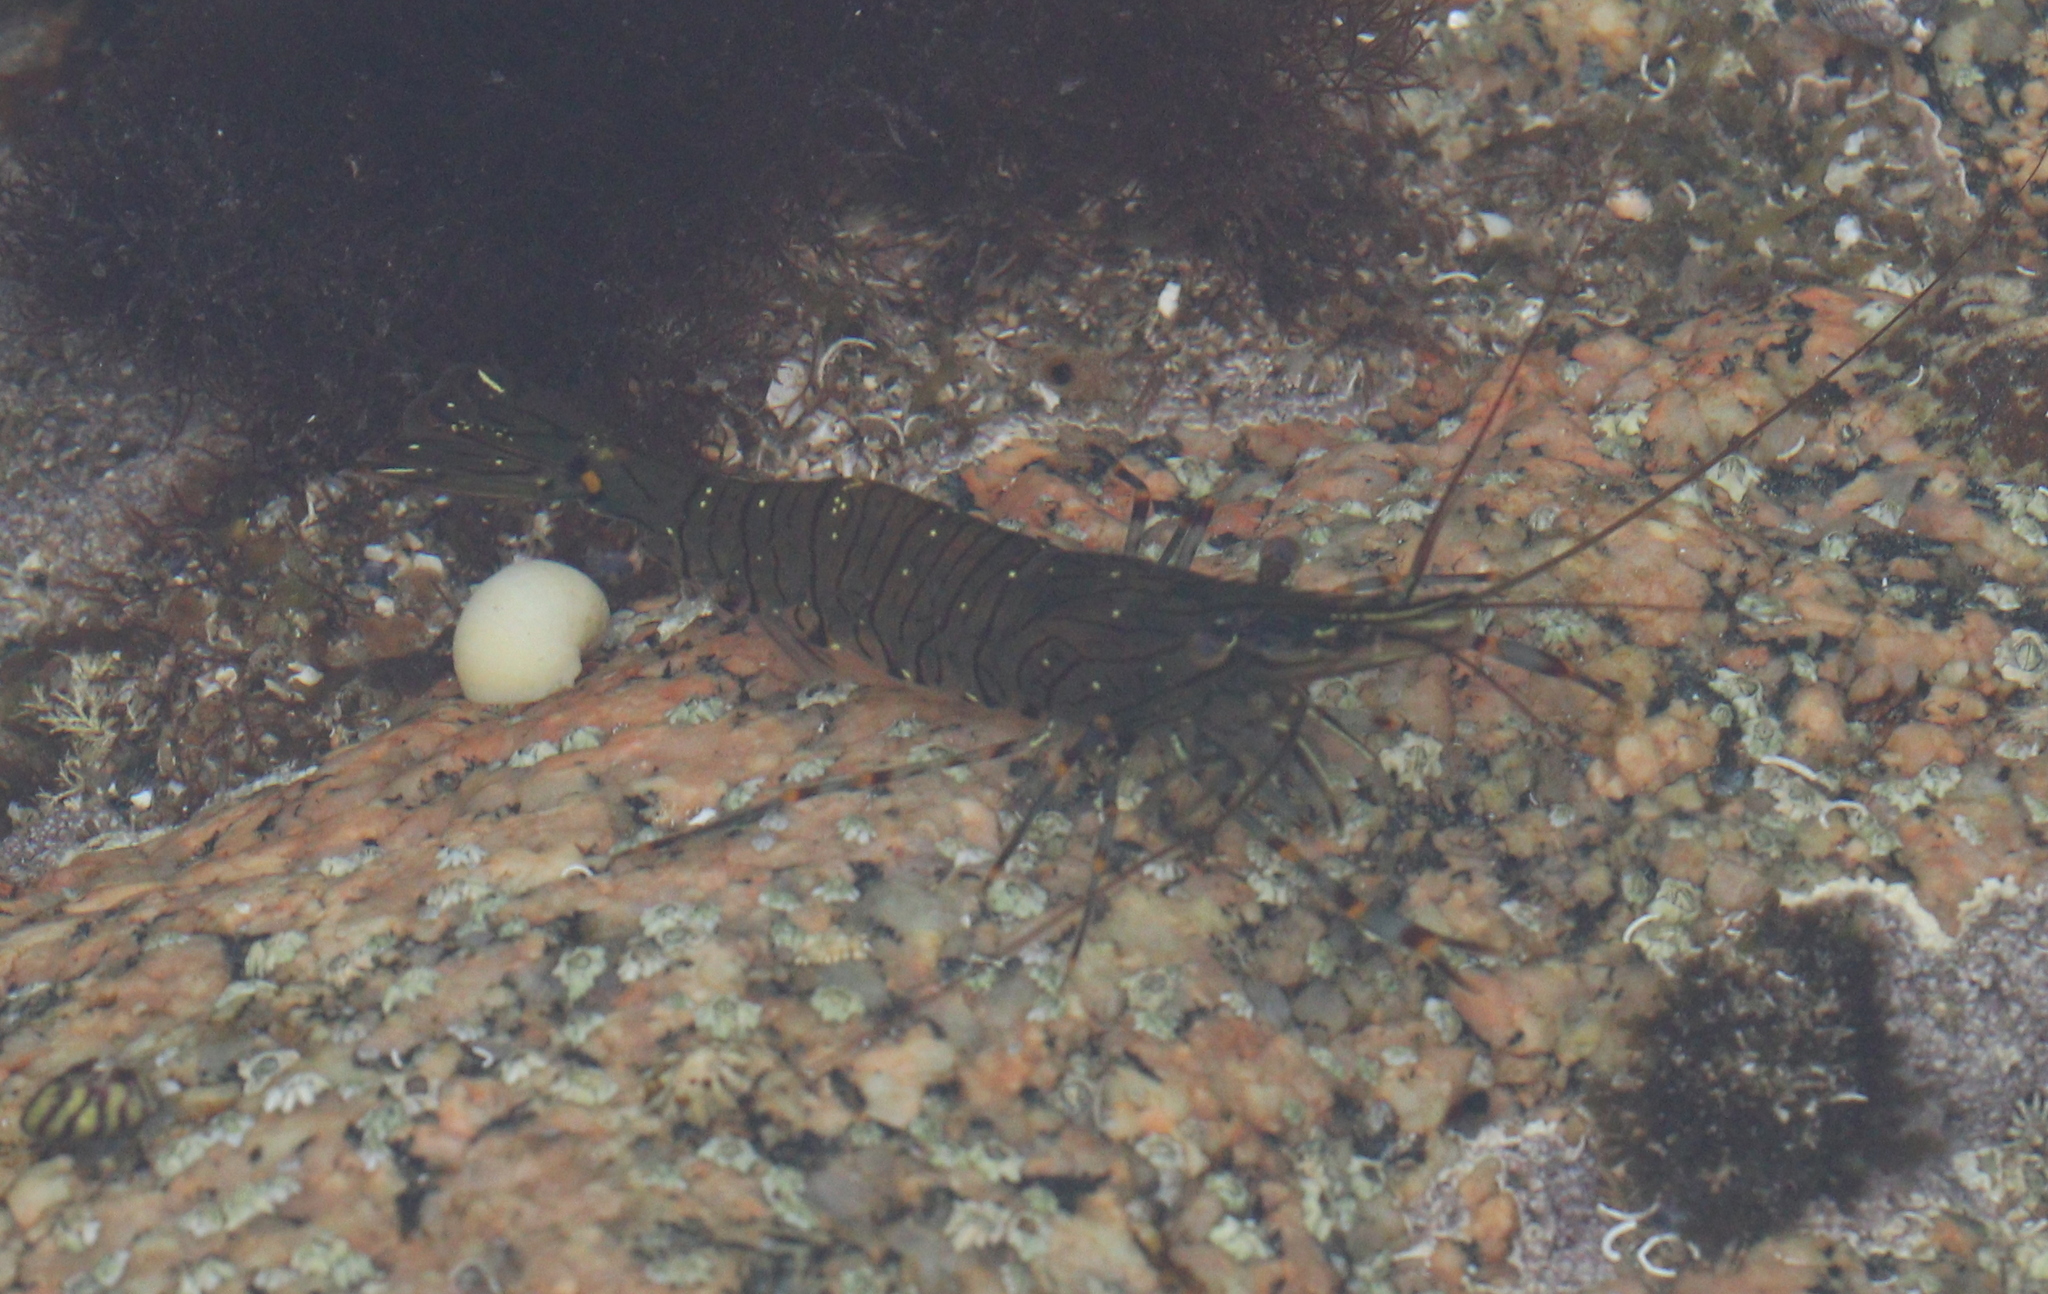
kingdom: Animalia
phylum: Arthropoda
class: Malacostraca
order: Decapoda
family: Palaemonidae
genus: Palaemon
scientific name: Palaemon serratus
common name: Common prawn
